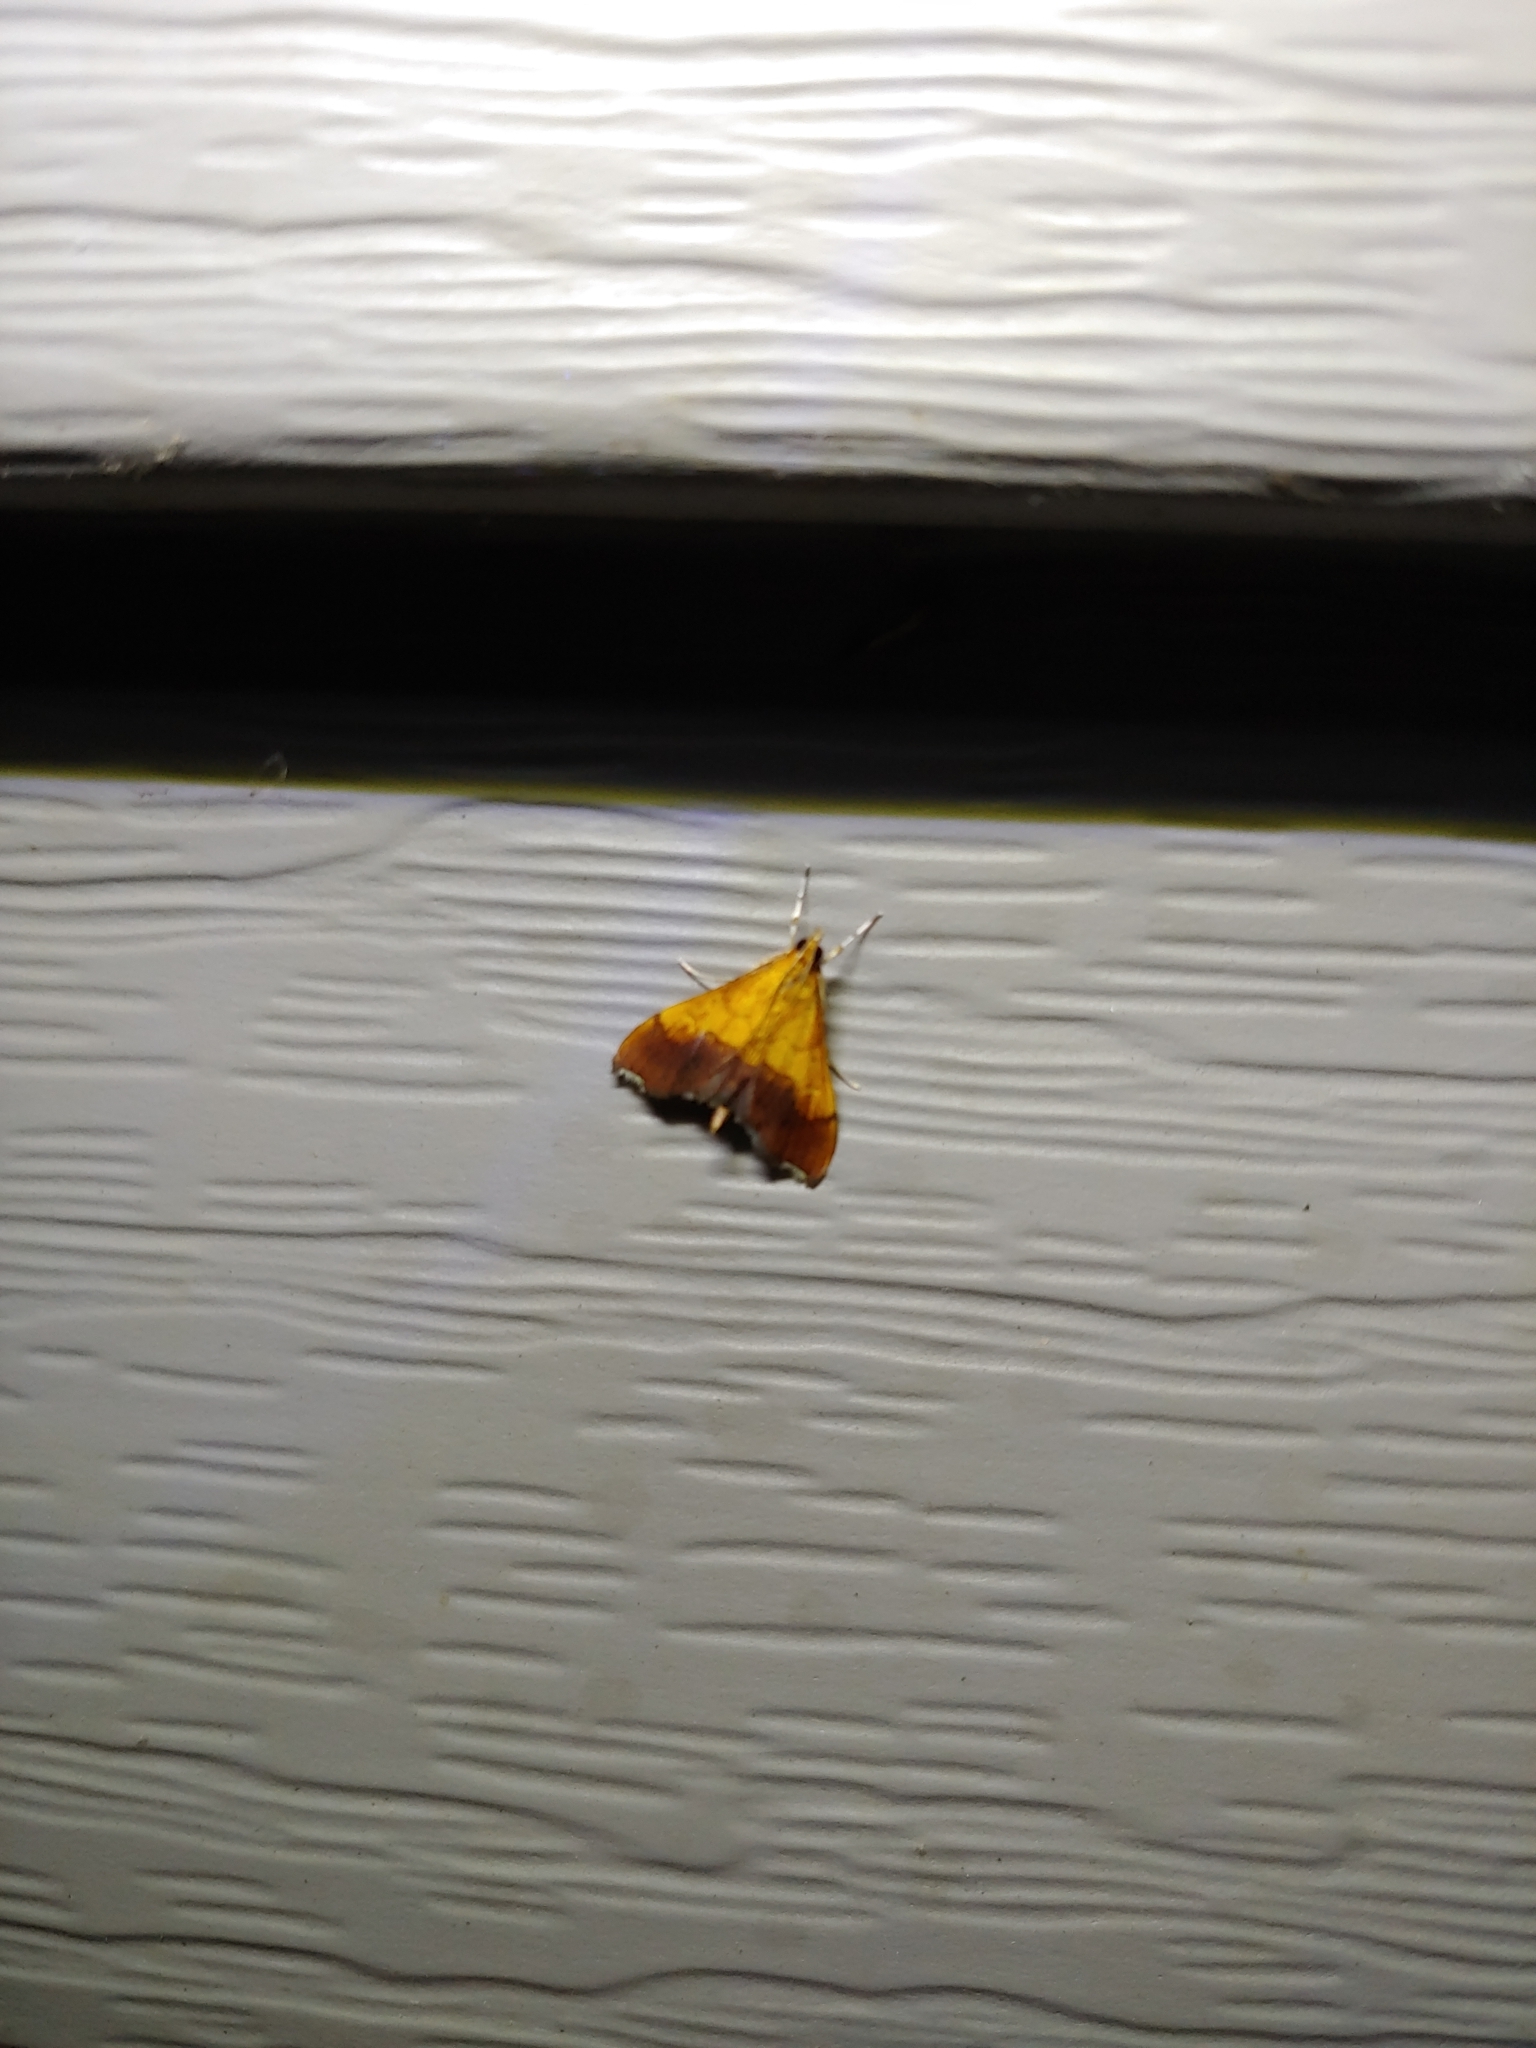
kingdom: Animalia
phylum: Arthropoda
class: Insecta
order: Lepidoptera
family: Crambidae
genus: Pyrausta
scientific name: Pyrausta bicoloralis
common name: Bicolored pyrausta moth
